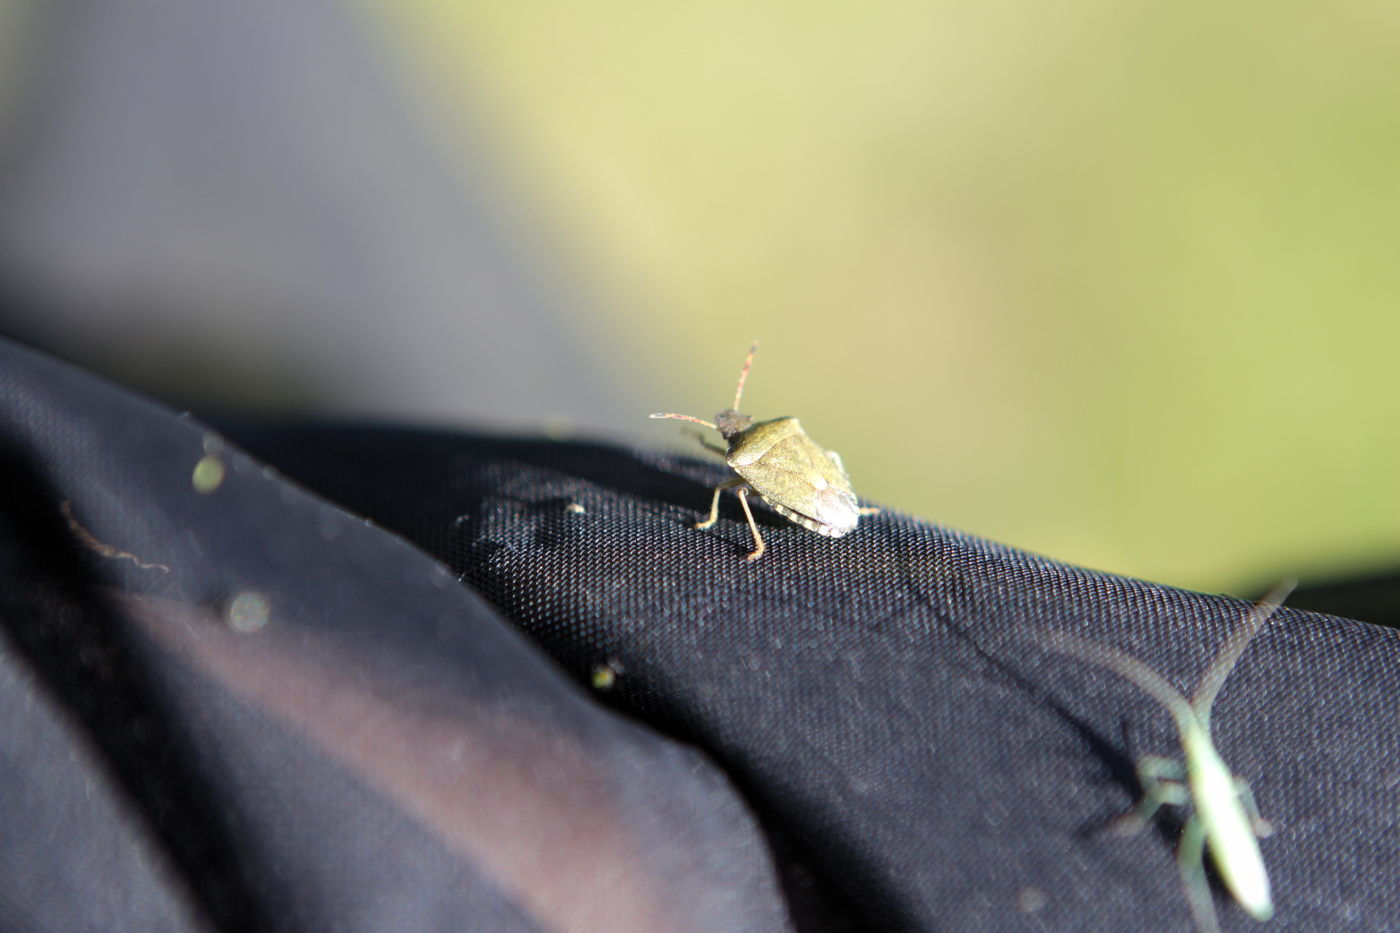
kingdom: Animalia
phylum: Arthropoda
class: Insecta
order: Hemiptera
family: Pentatomidae
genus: Holcostethus
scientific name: Holcostethus strictus
